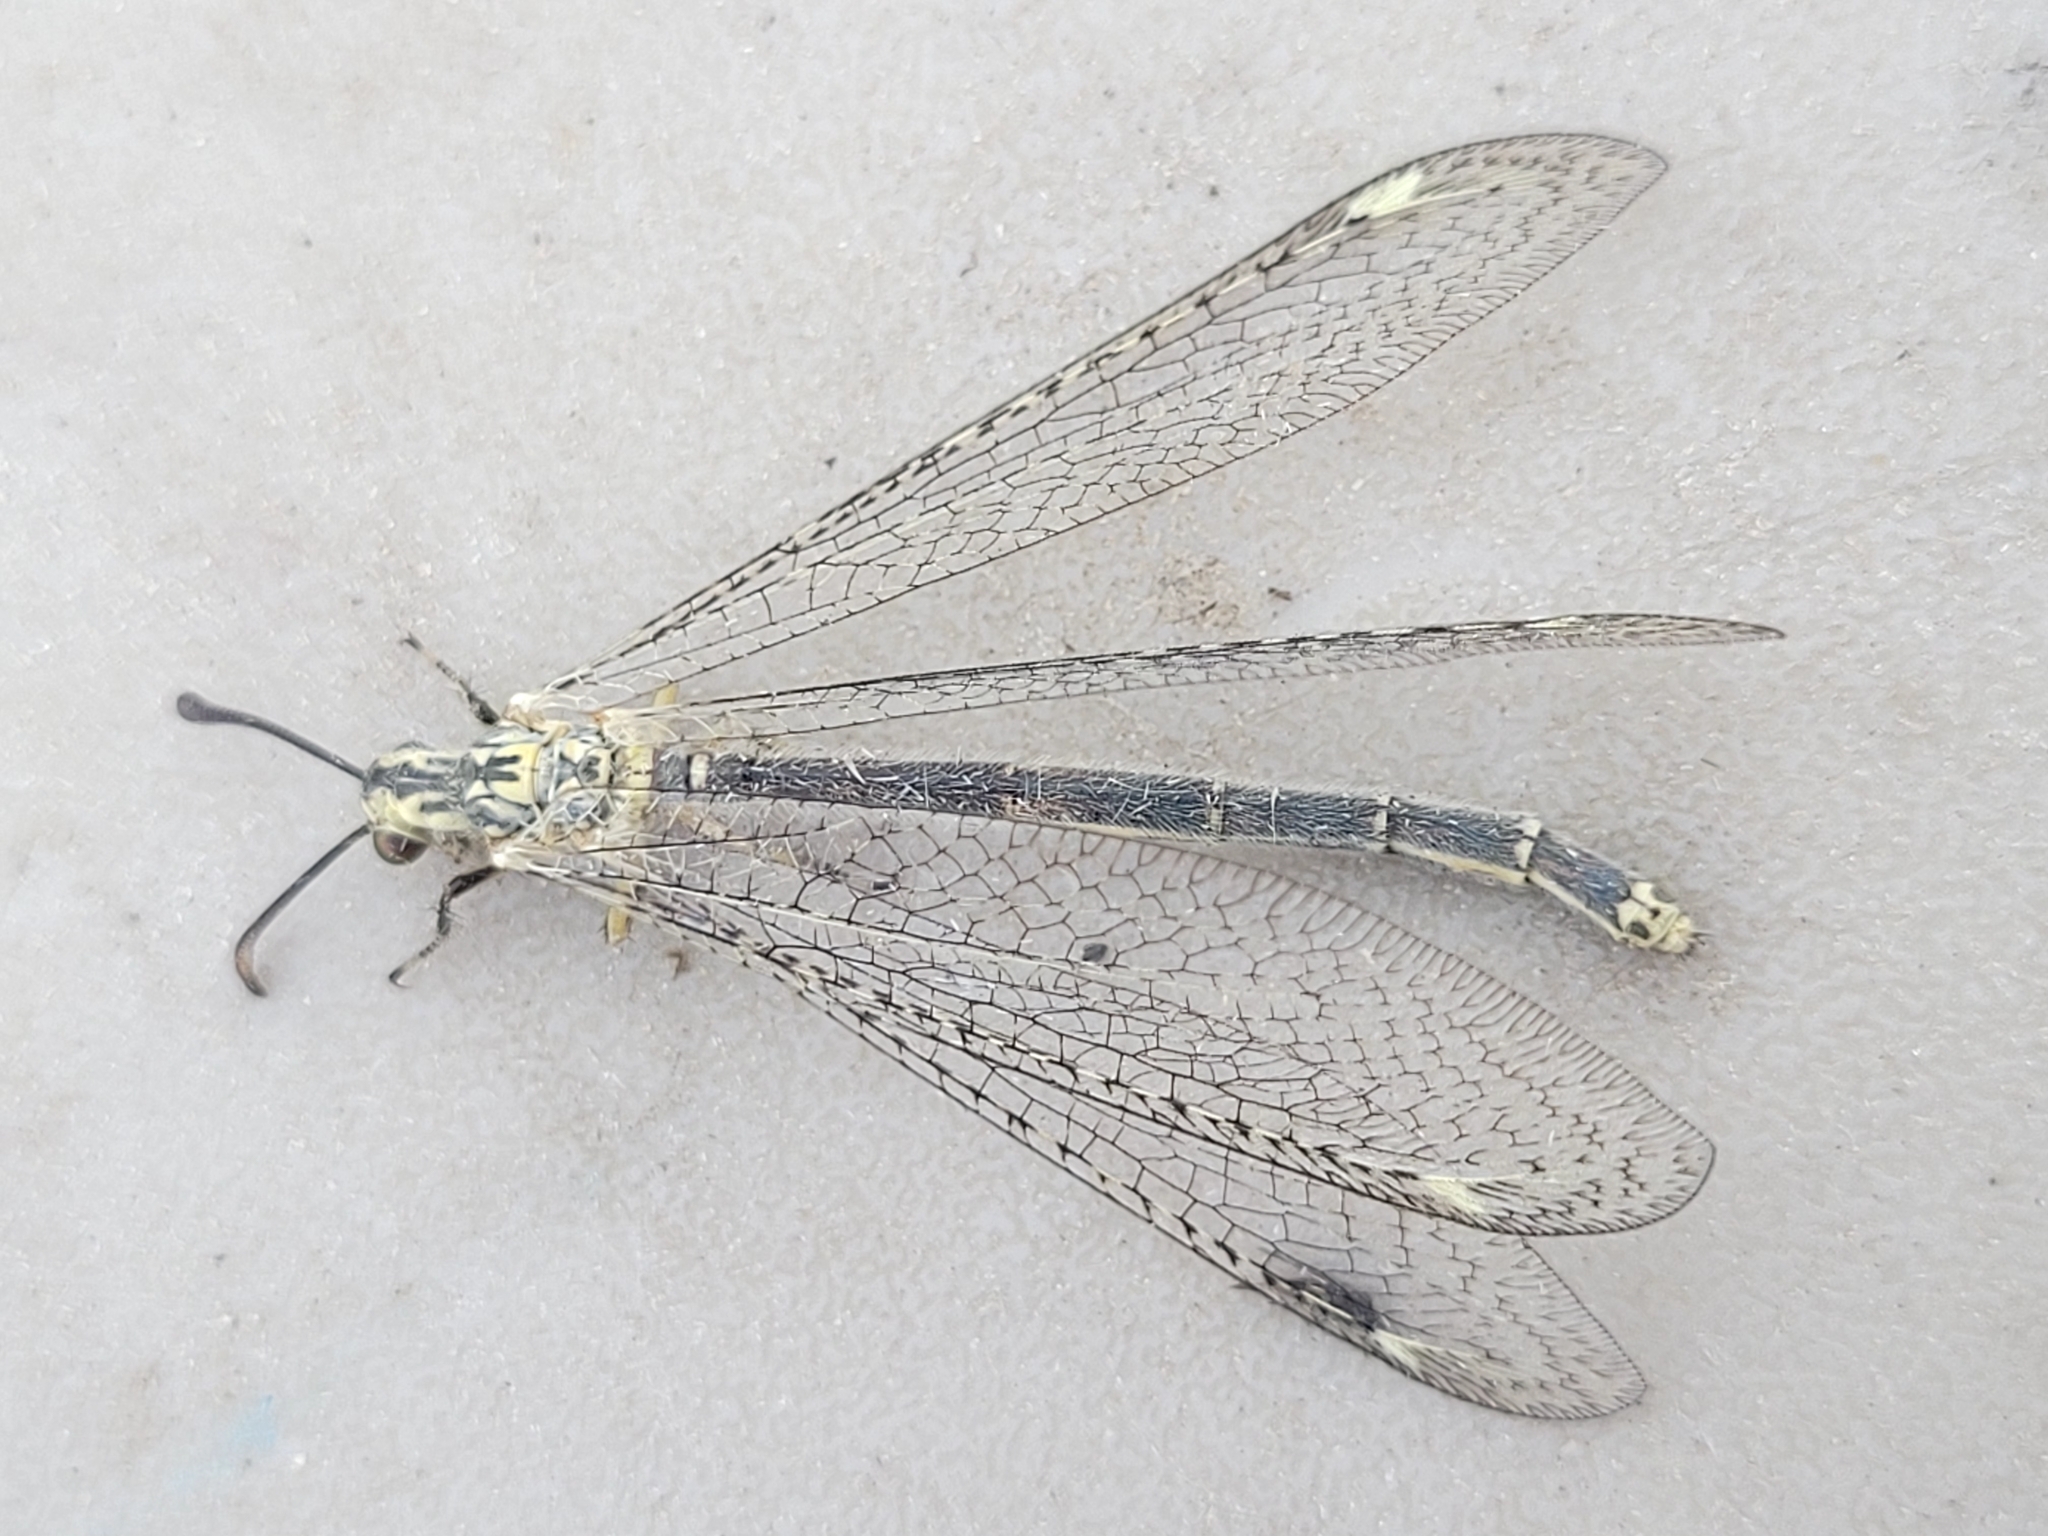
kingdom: Animalia
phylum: Arthropoda
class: Insecta
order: Neuroptera
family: Myrmeleontidae
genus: Scotoleon
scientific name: Scotoleon nigrilabris
